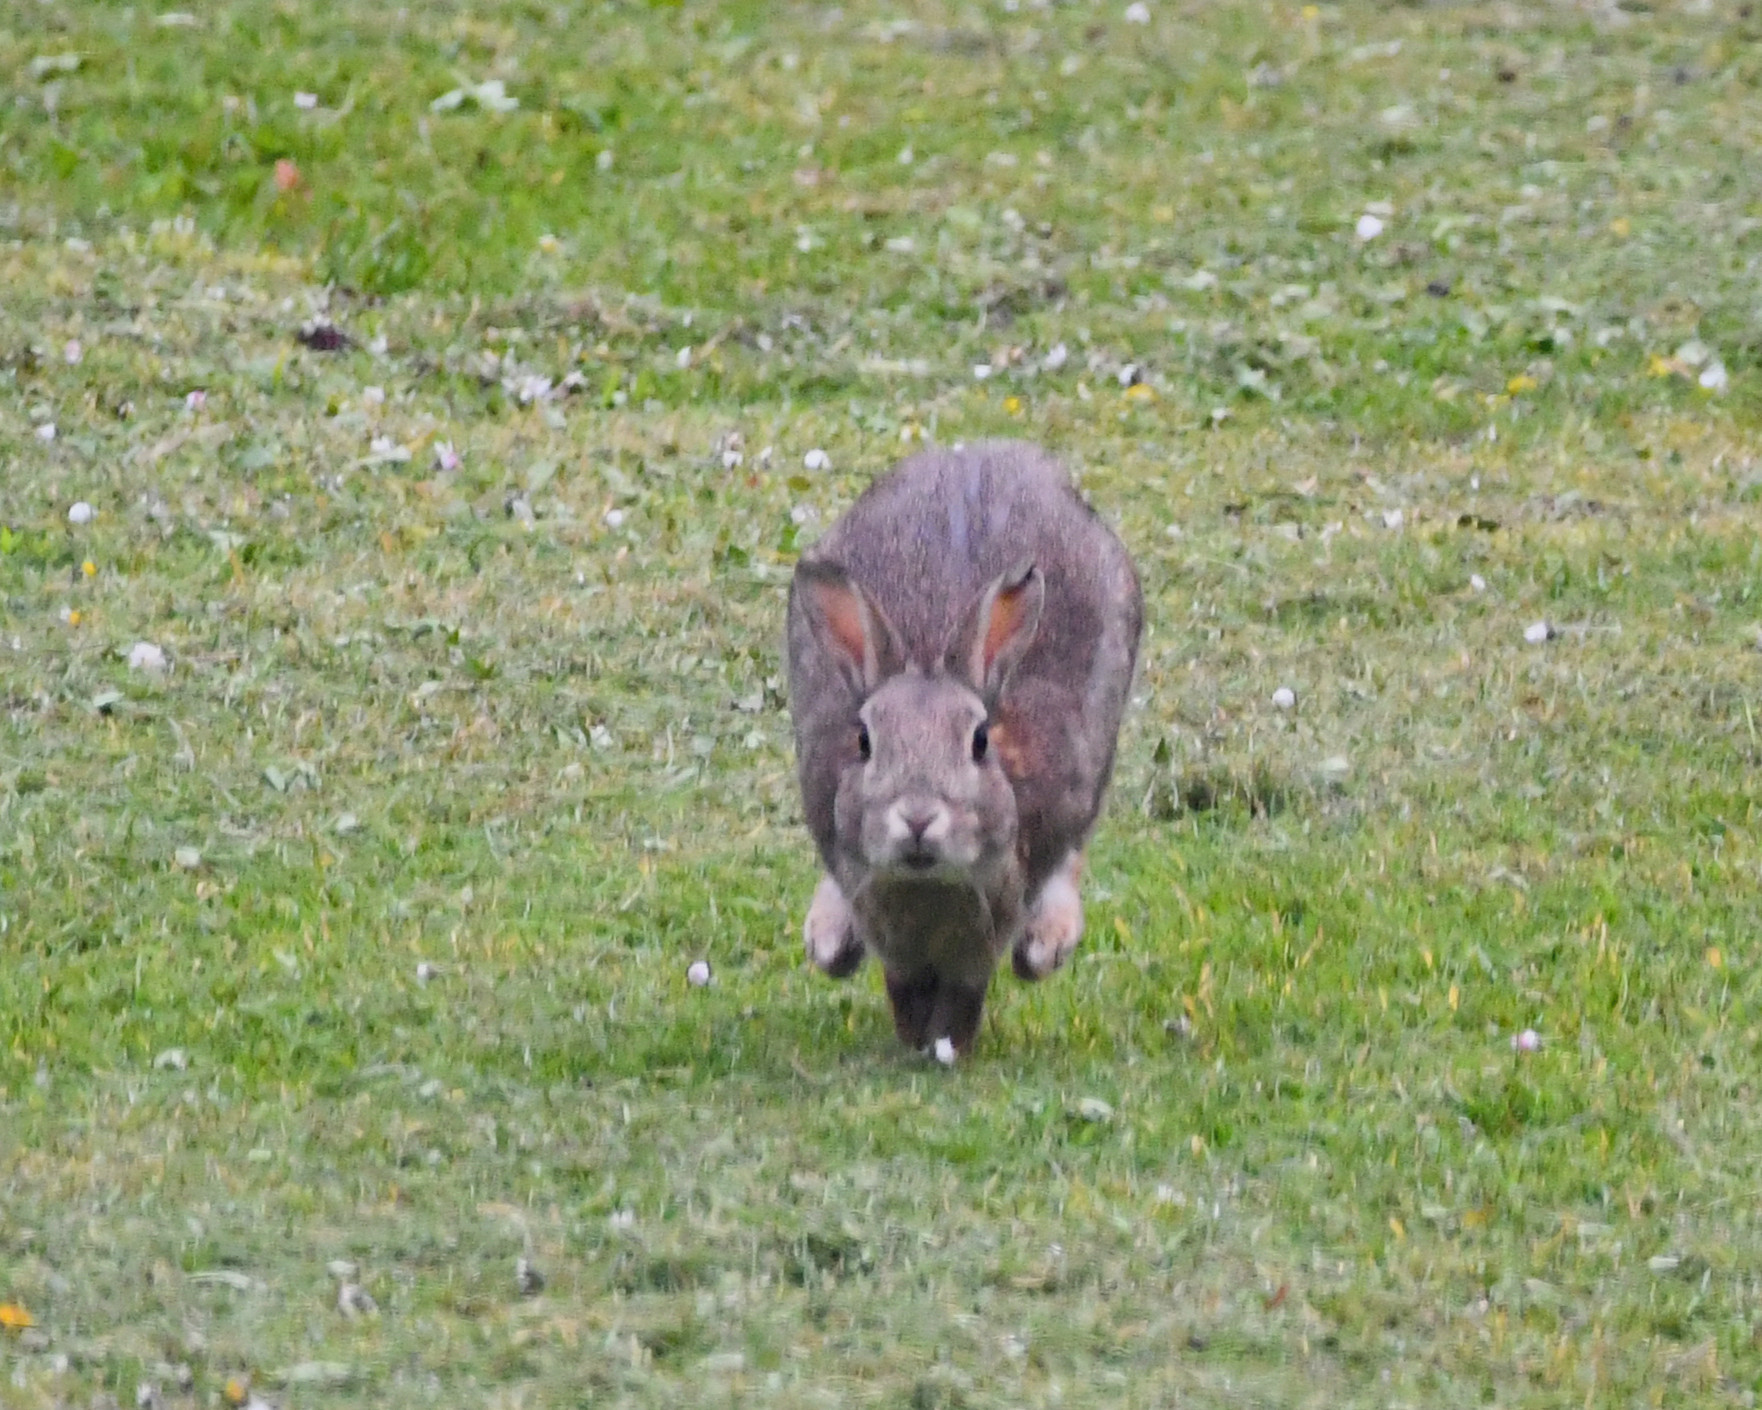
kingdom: Animalia
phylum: Chordata
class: Mammalia
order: Lagomorpha
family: Leporidae
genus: Oryctolagus
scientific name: Oryctolagus cuniculus
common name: European rabbit
